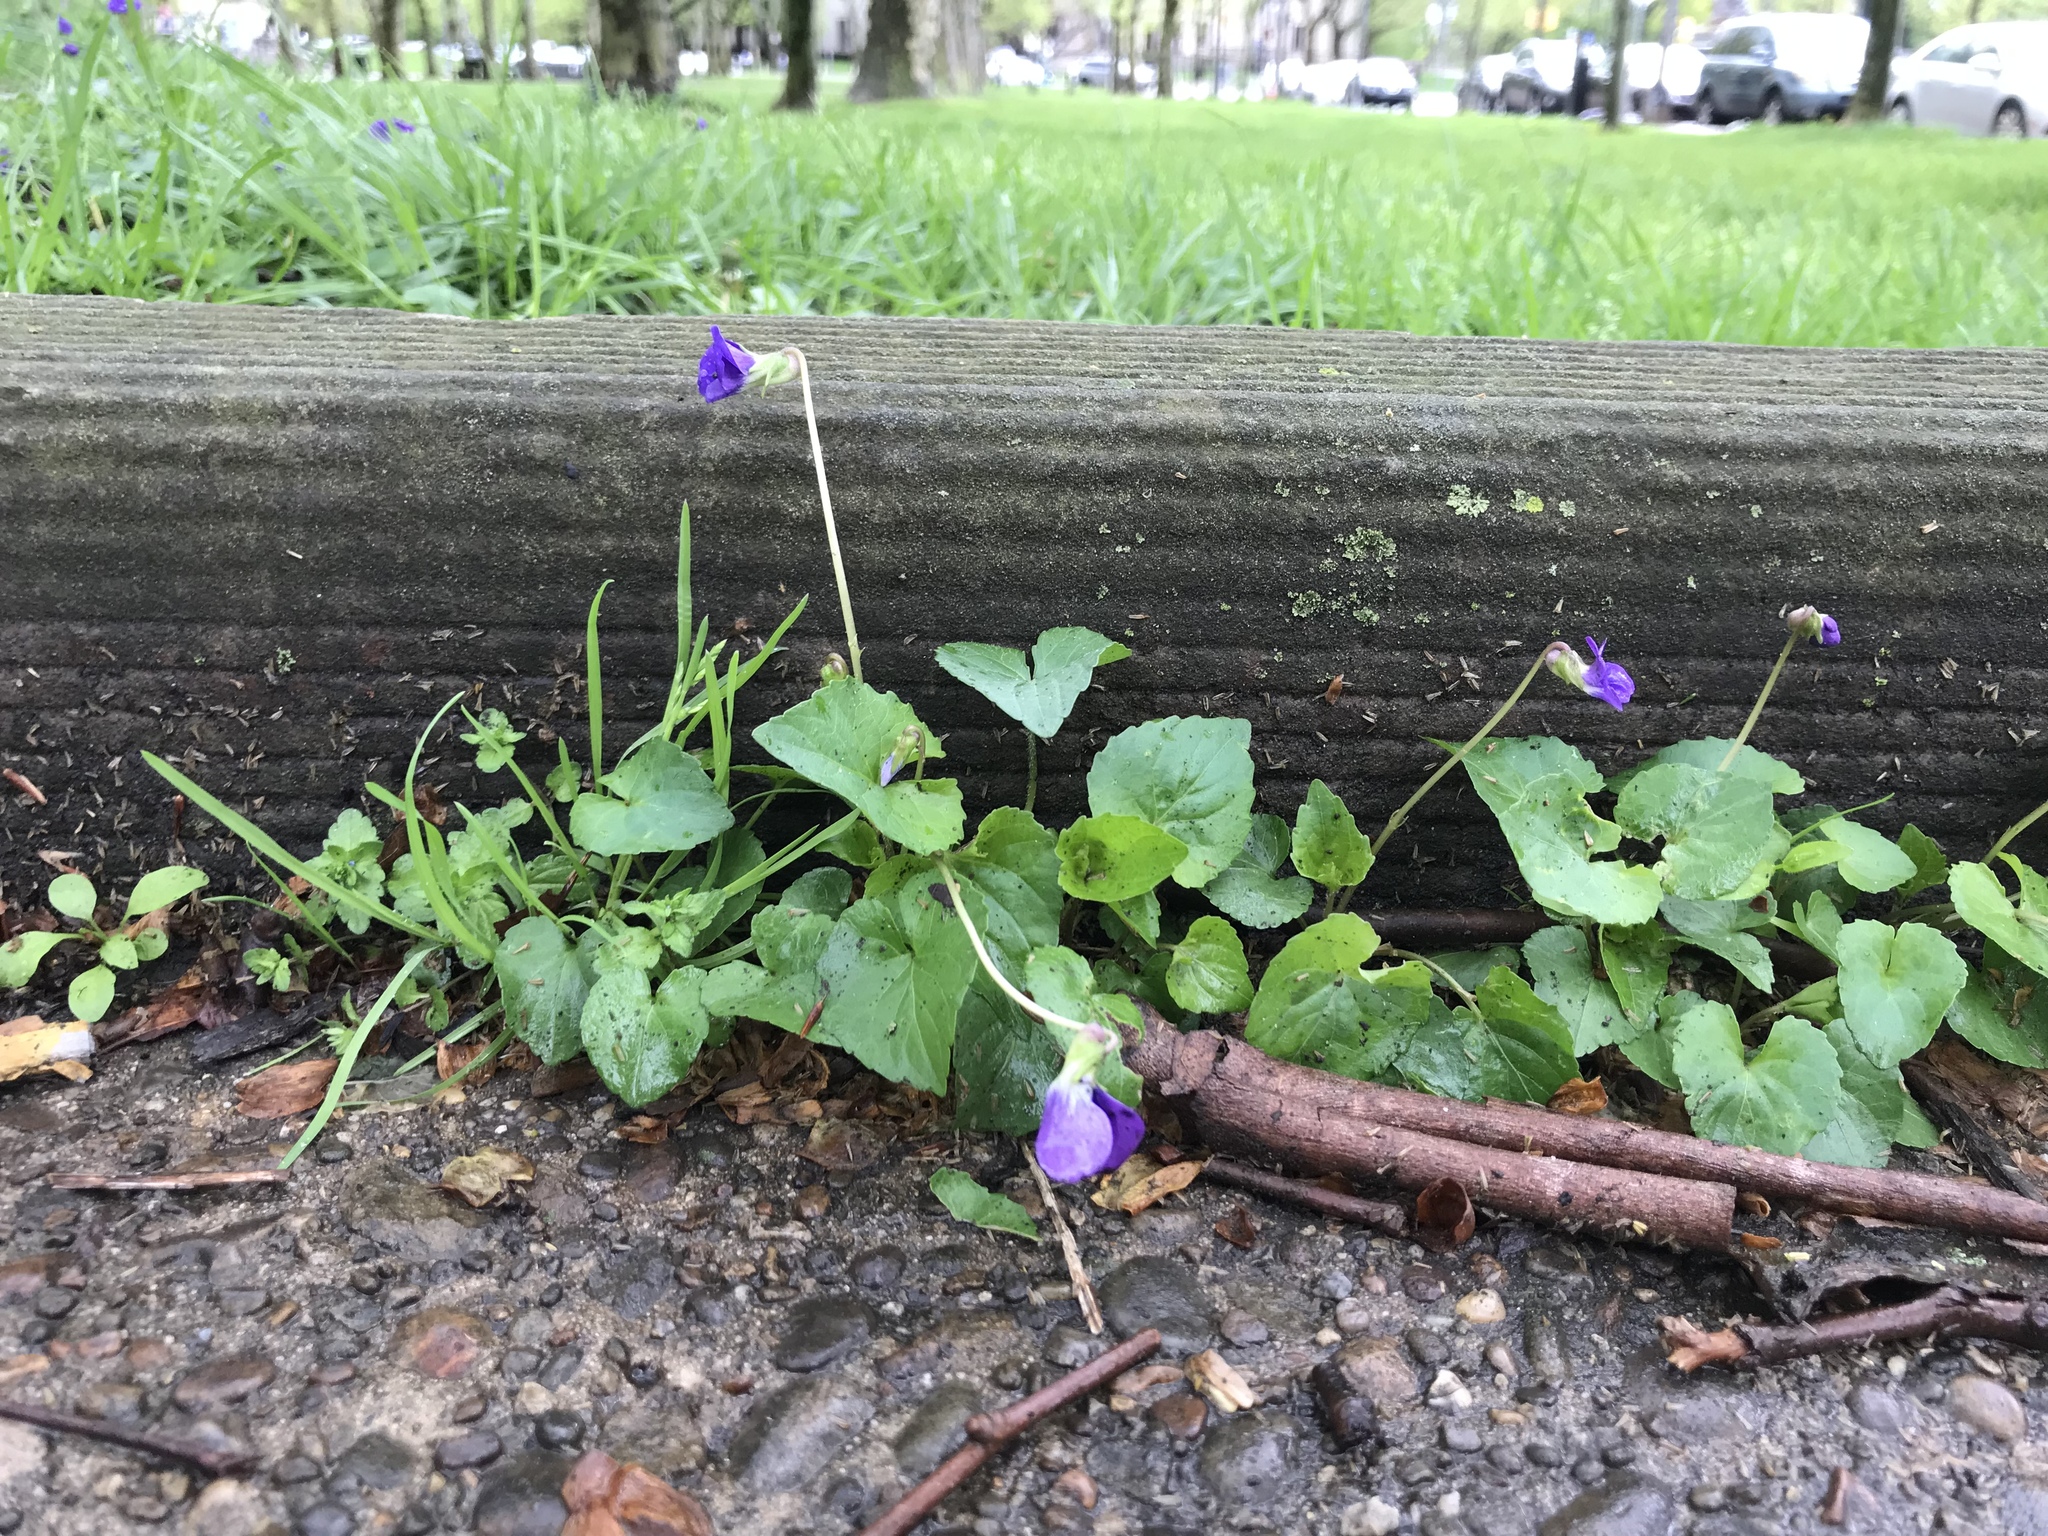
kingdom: Plantae
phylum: Tracheophyta
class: Magnoliopsida
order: Malpighiales
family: Violaceae
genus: Viola
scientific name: Viola sororia
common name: Dooryard violet
